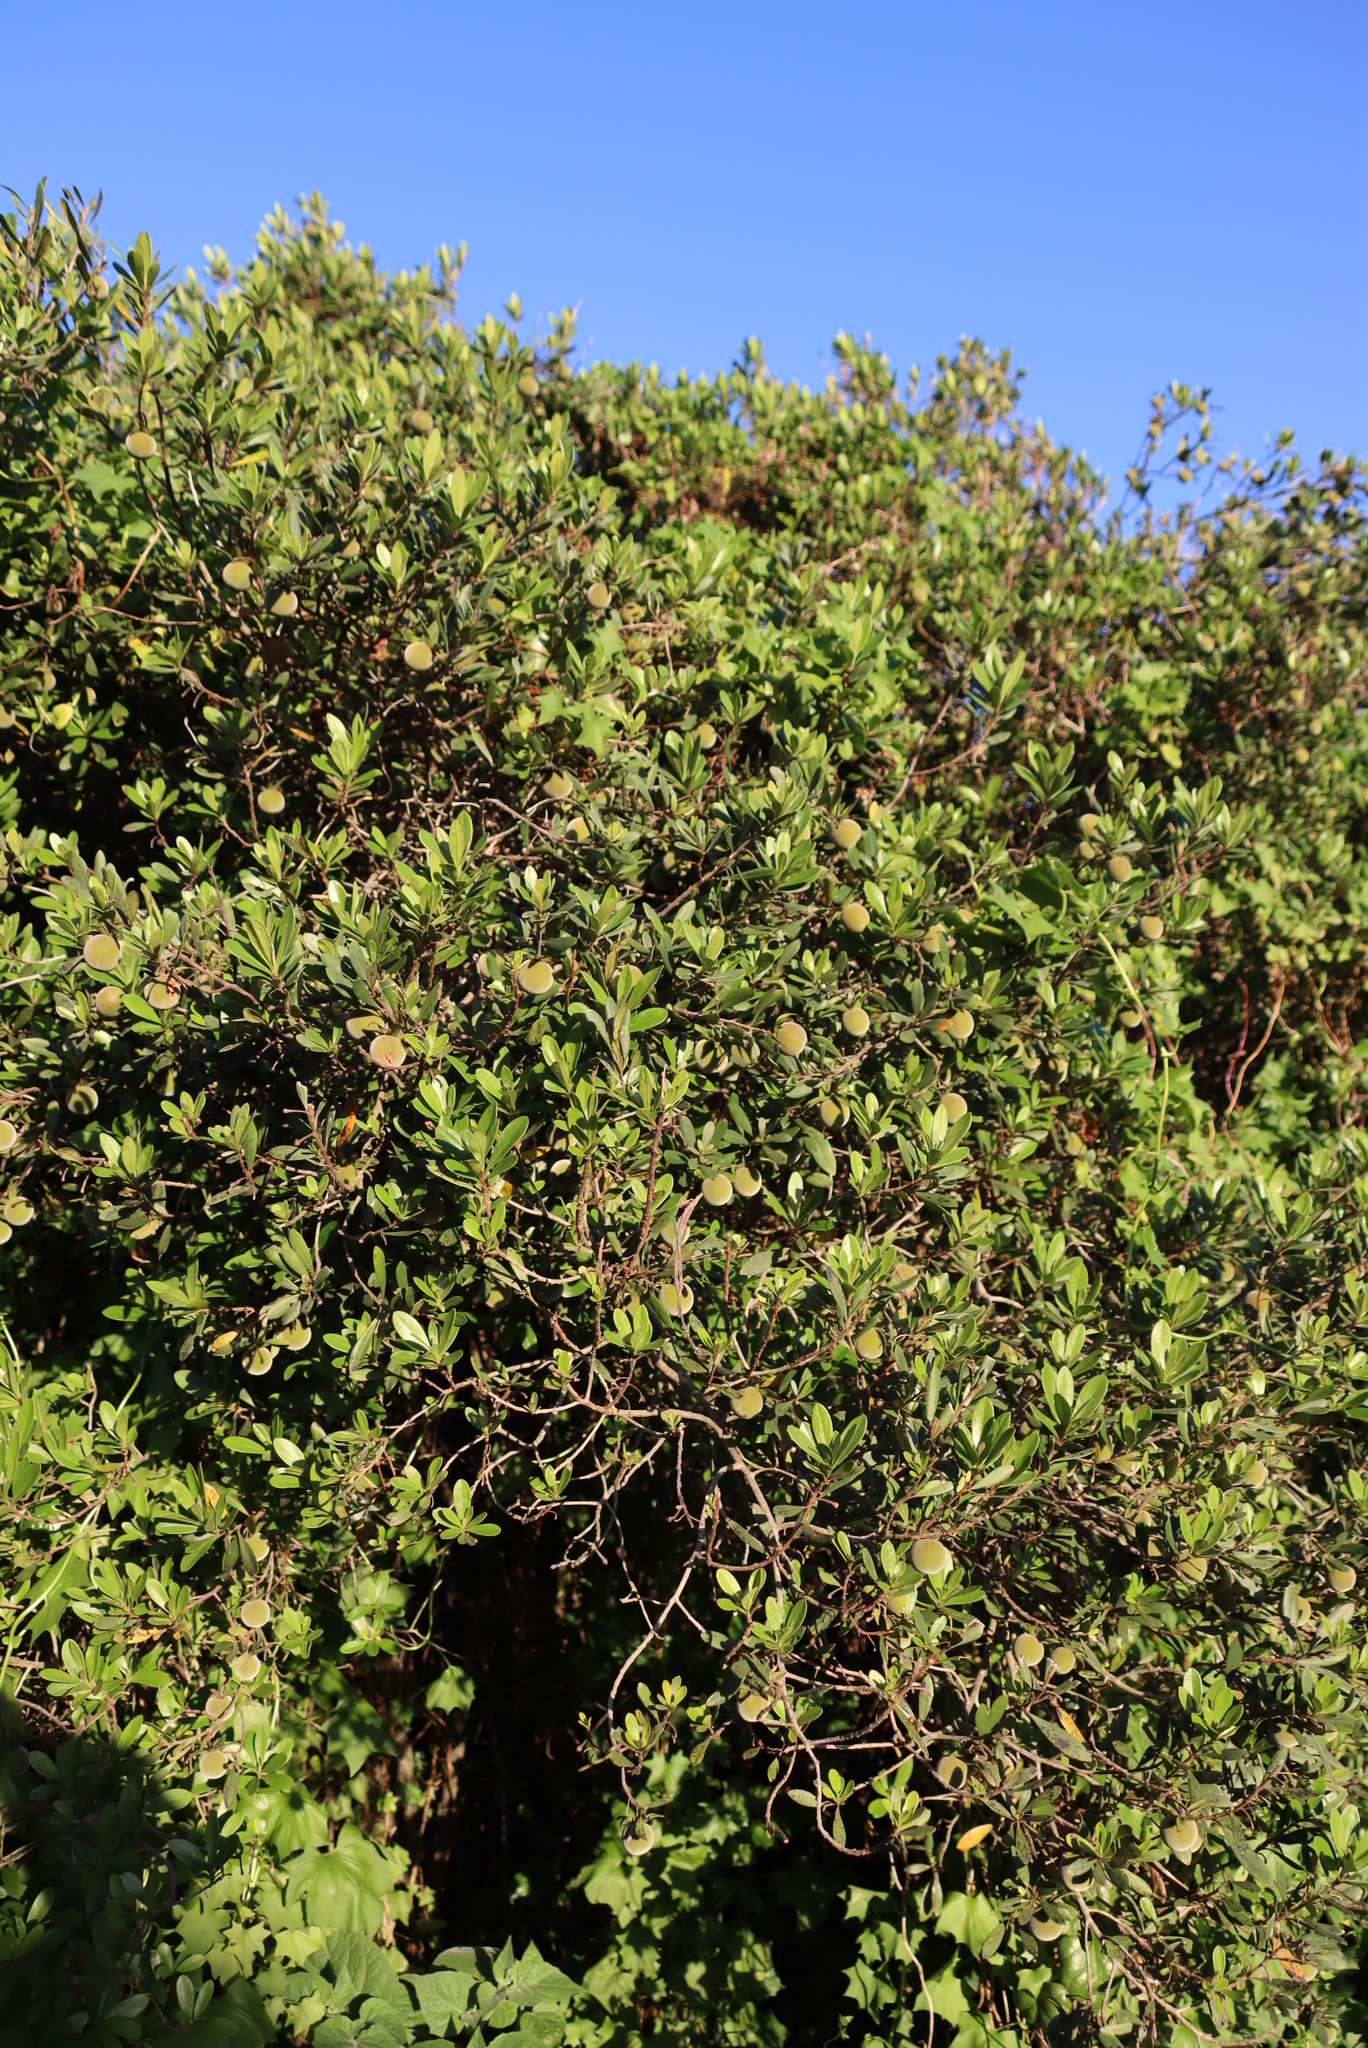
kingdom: Plantae
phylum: Tracheophyta
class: Magnoliopsida
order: Ericales
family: Ebenaceae
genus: Diospyros
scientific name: Diospyros dichrophylla
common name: Common star-apple
